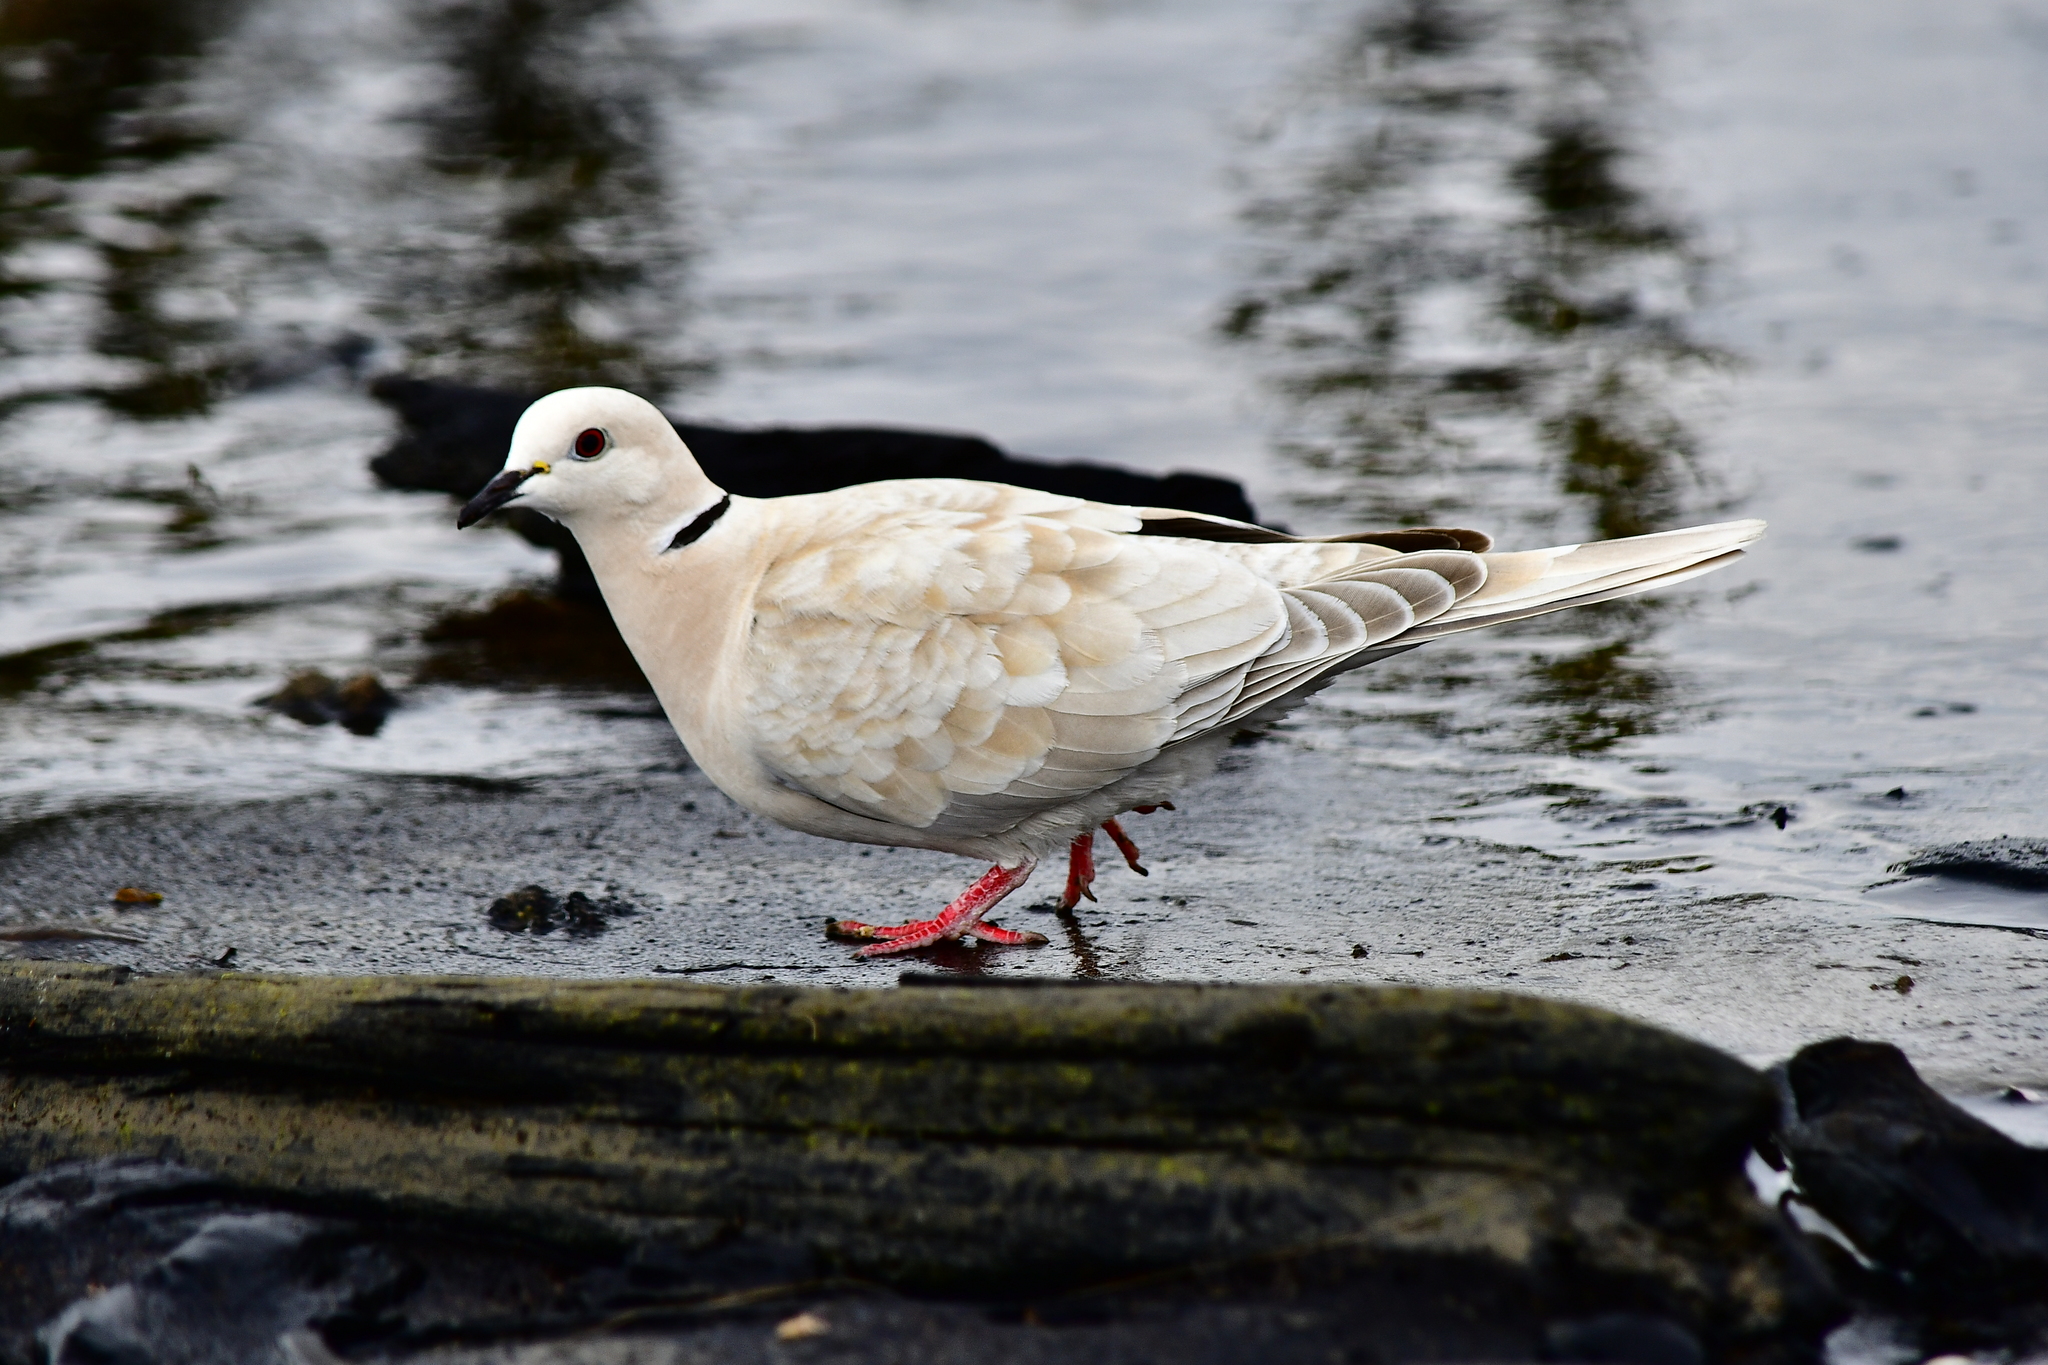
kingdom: Animalia
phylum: Chordata
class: Aves
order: Columbiformes
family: Columbidae
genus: Streptopelia
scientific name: Streptopelia roseogrisea
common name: African collared dove
